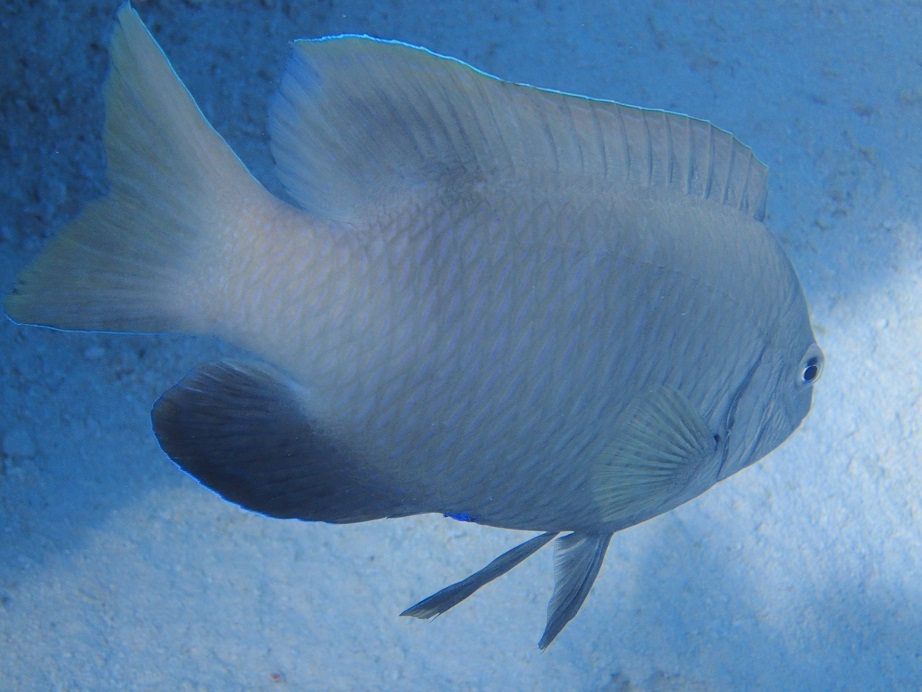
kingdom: Animalia
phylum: Chordata
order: Perciformes
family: Pomacentridae
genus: Dischistodus
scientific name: Dischistodus perspicillatus
